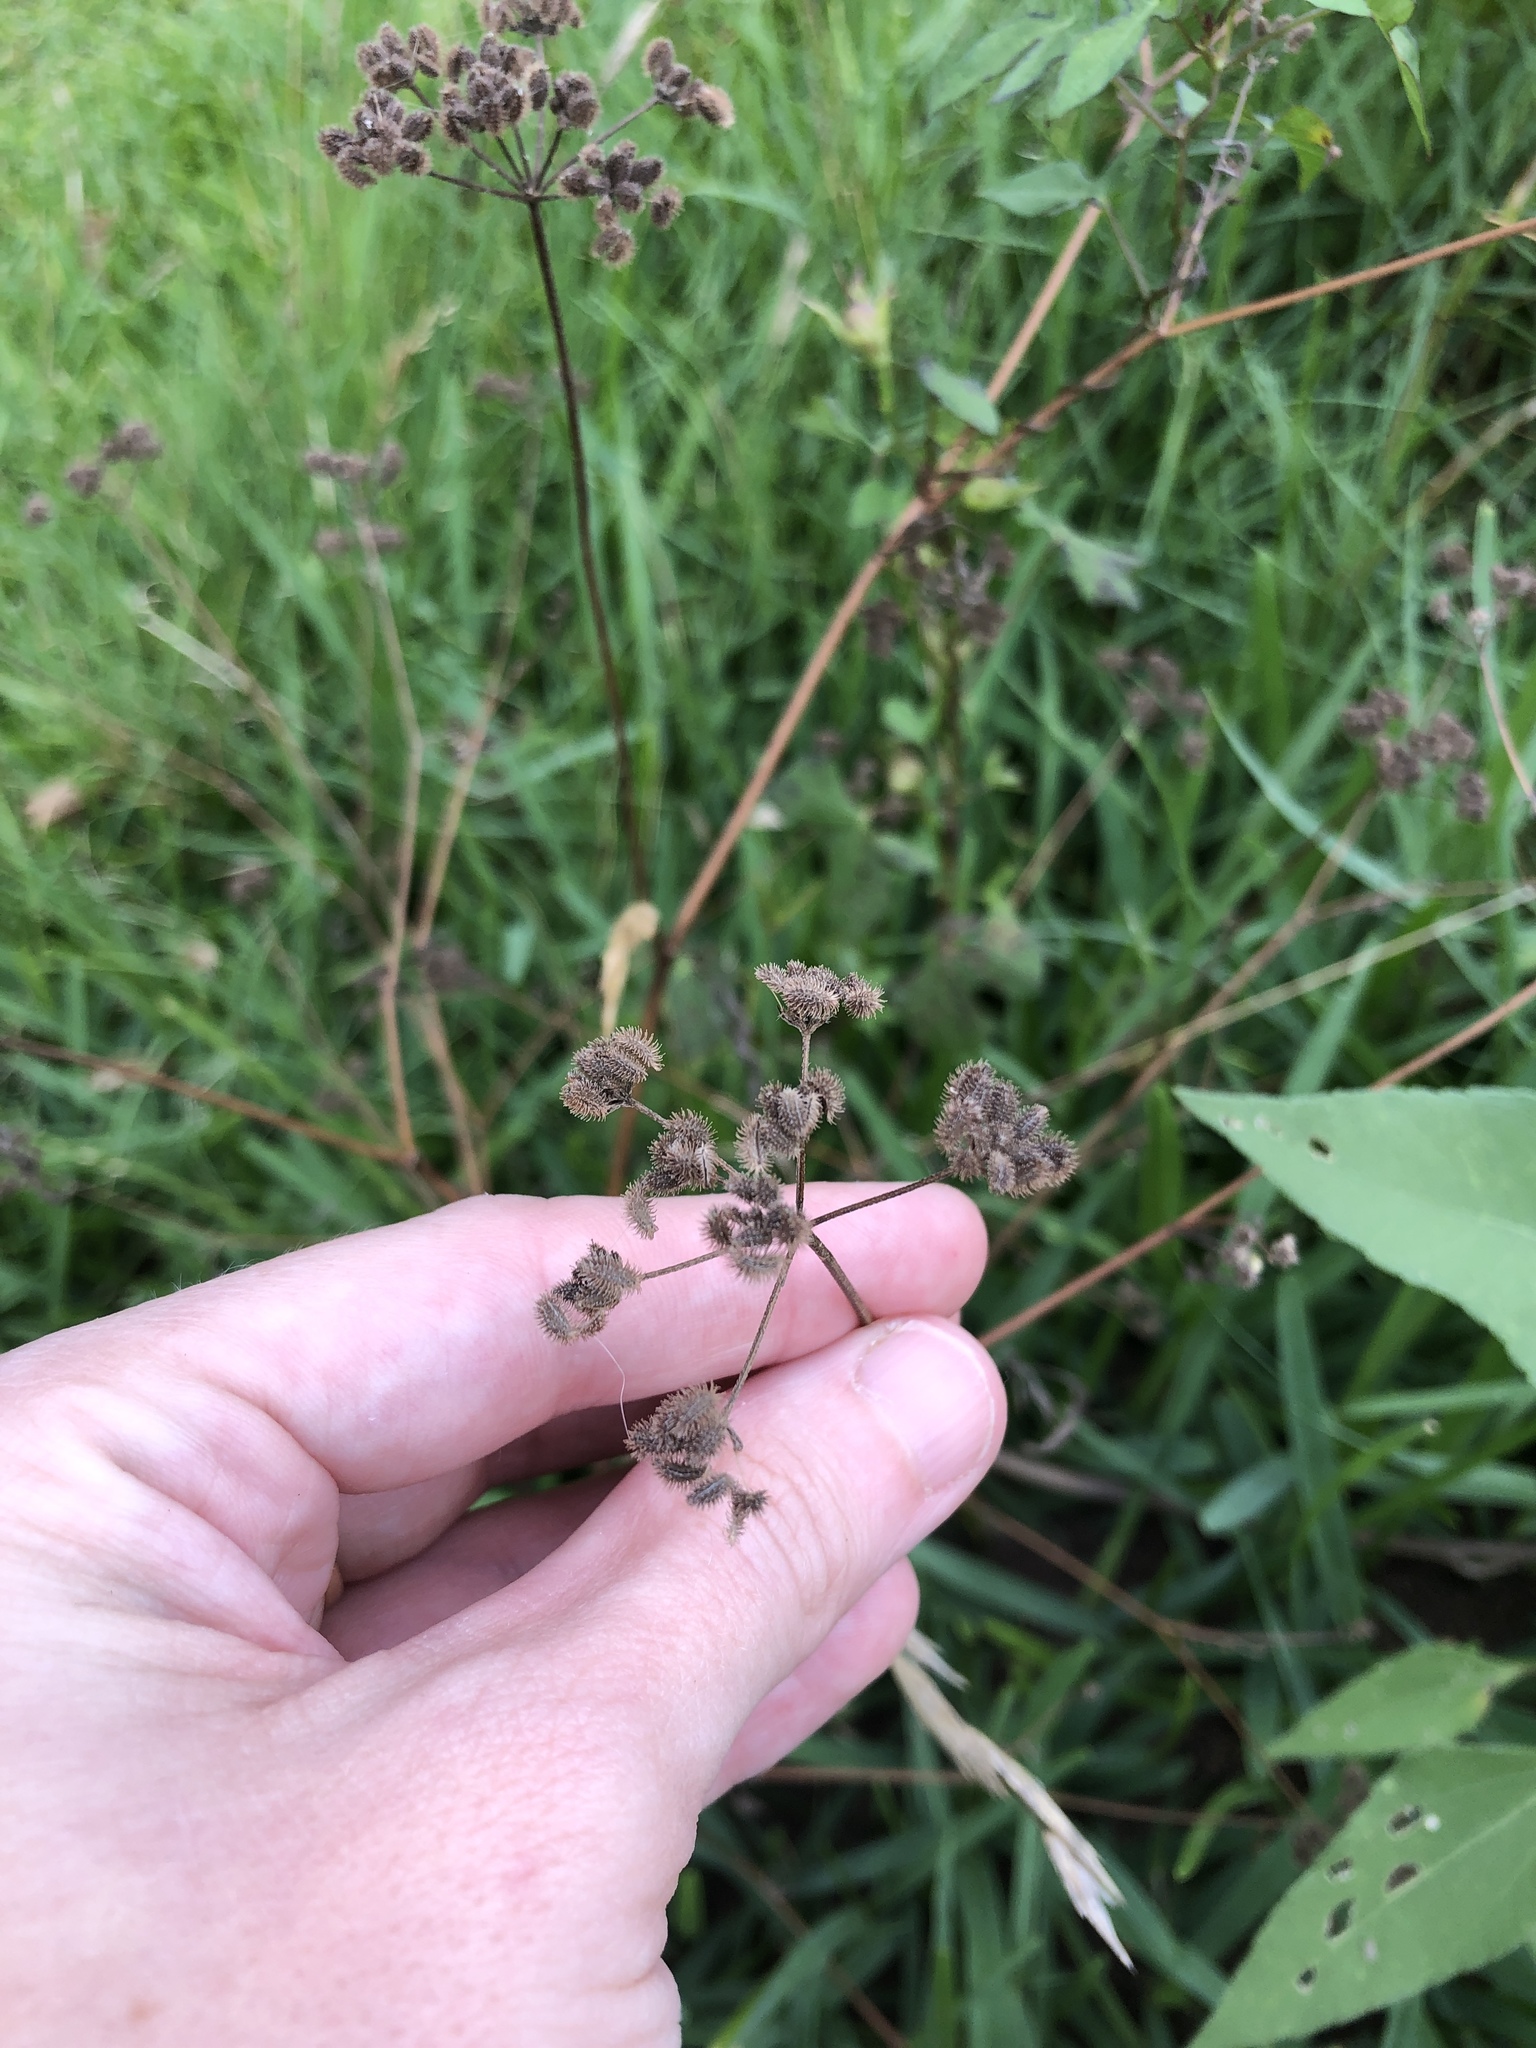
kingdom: Plantae
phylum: Tracheophyta
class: Magnoliopsida
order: Apiales
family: Apiaceae
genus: Torilis
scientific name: Torilis arvensis
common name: Spreading hedge-parsley
